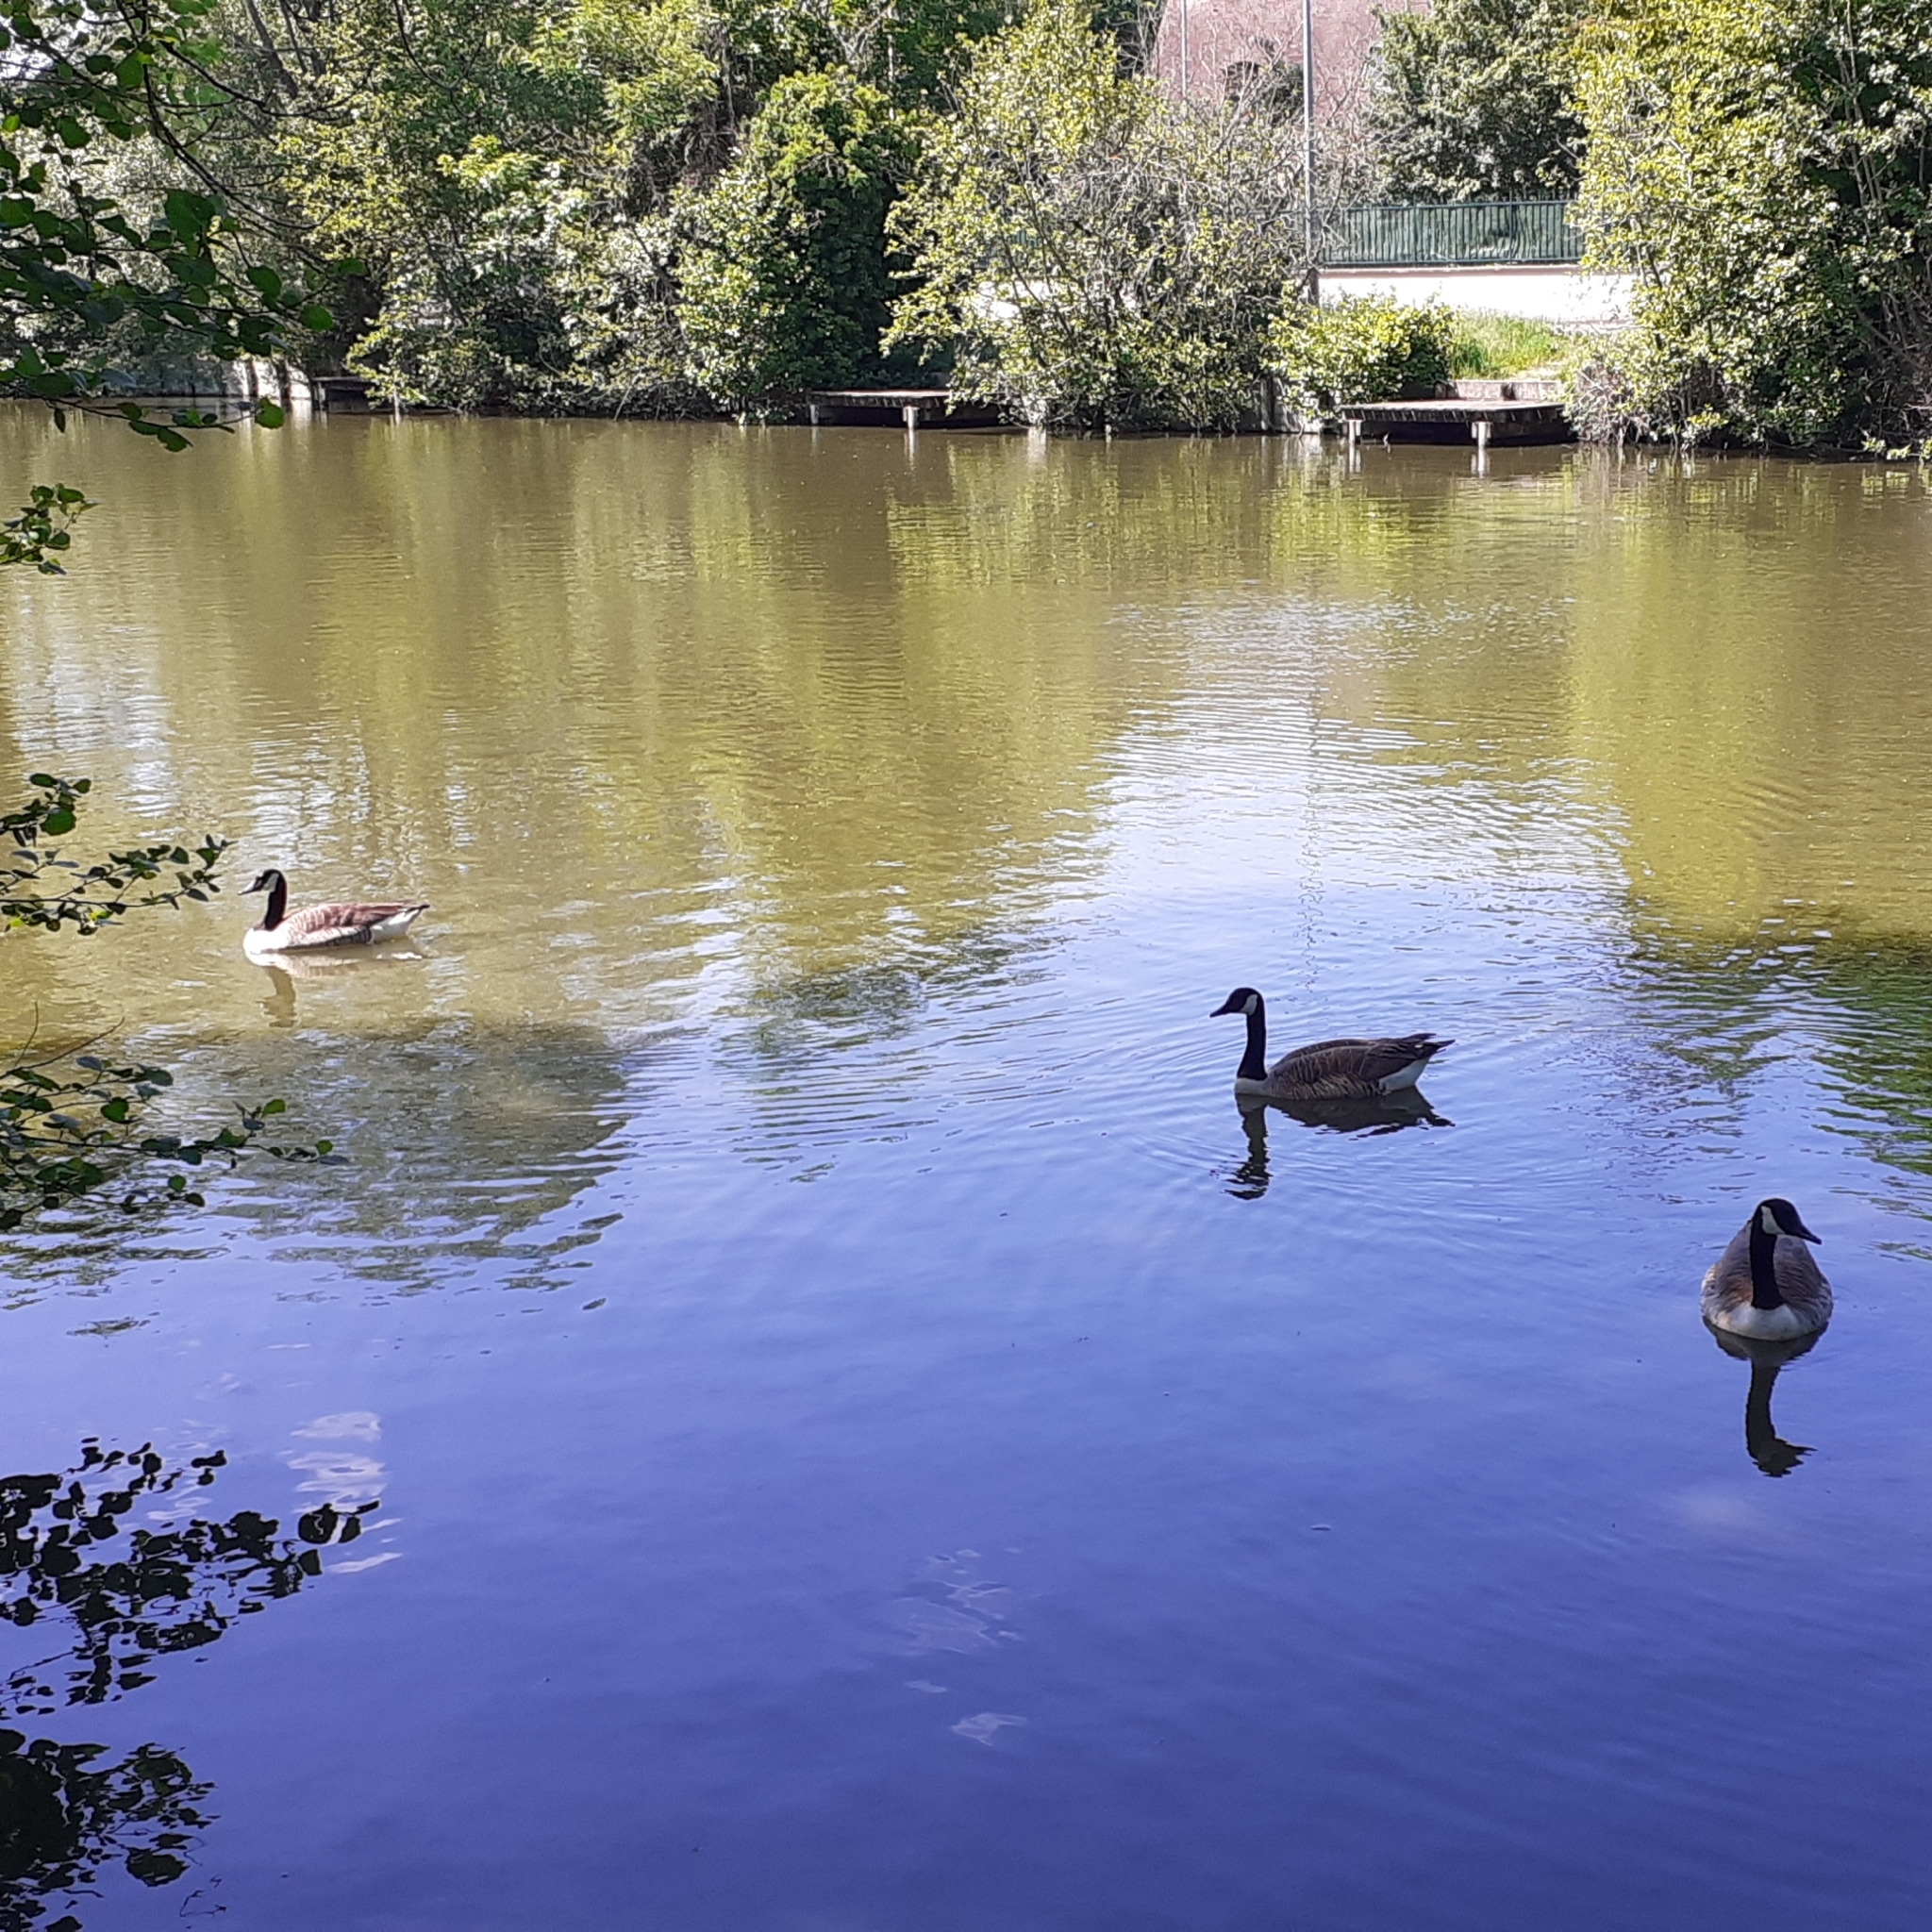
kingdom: Animalia
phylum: Chordata
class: Aves
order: Anseriformes
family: Anatidae
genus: Branta
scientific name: Branta canadensis
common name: Canada goose
